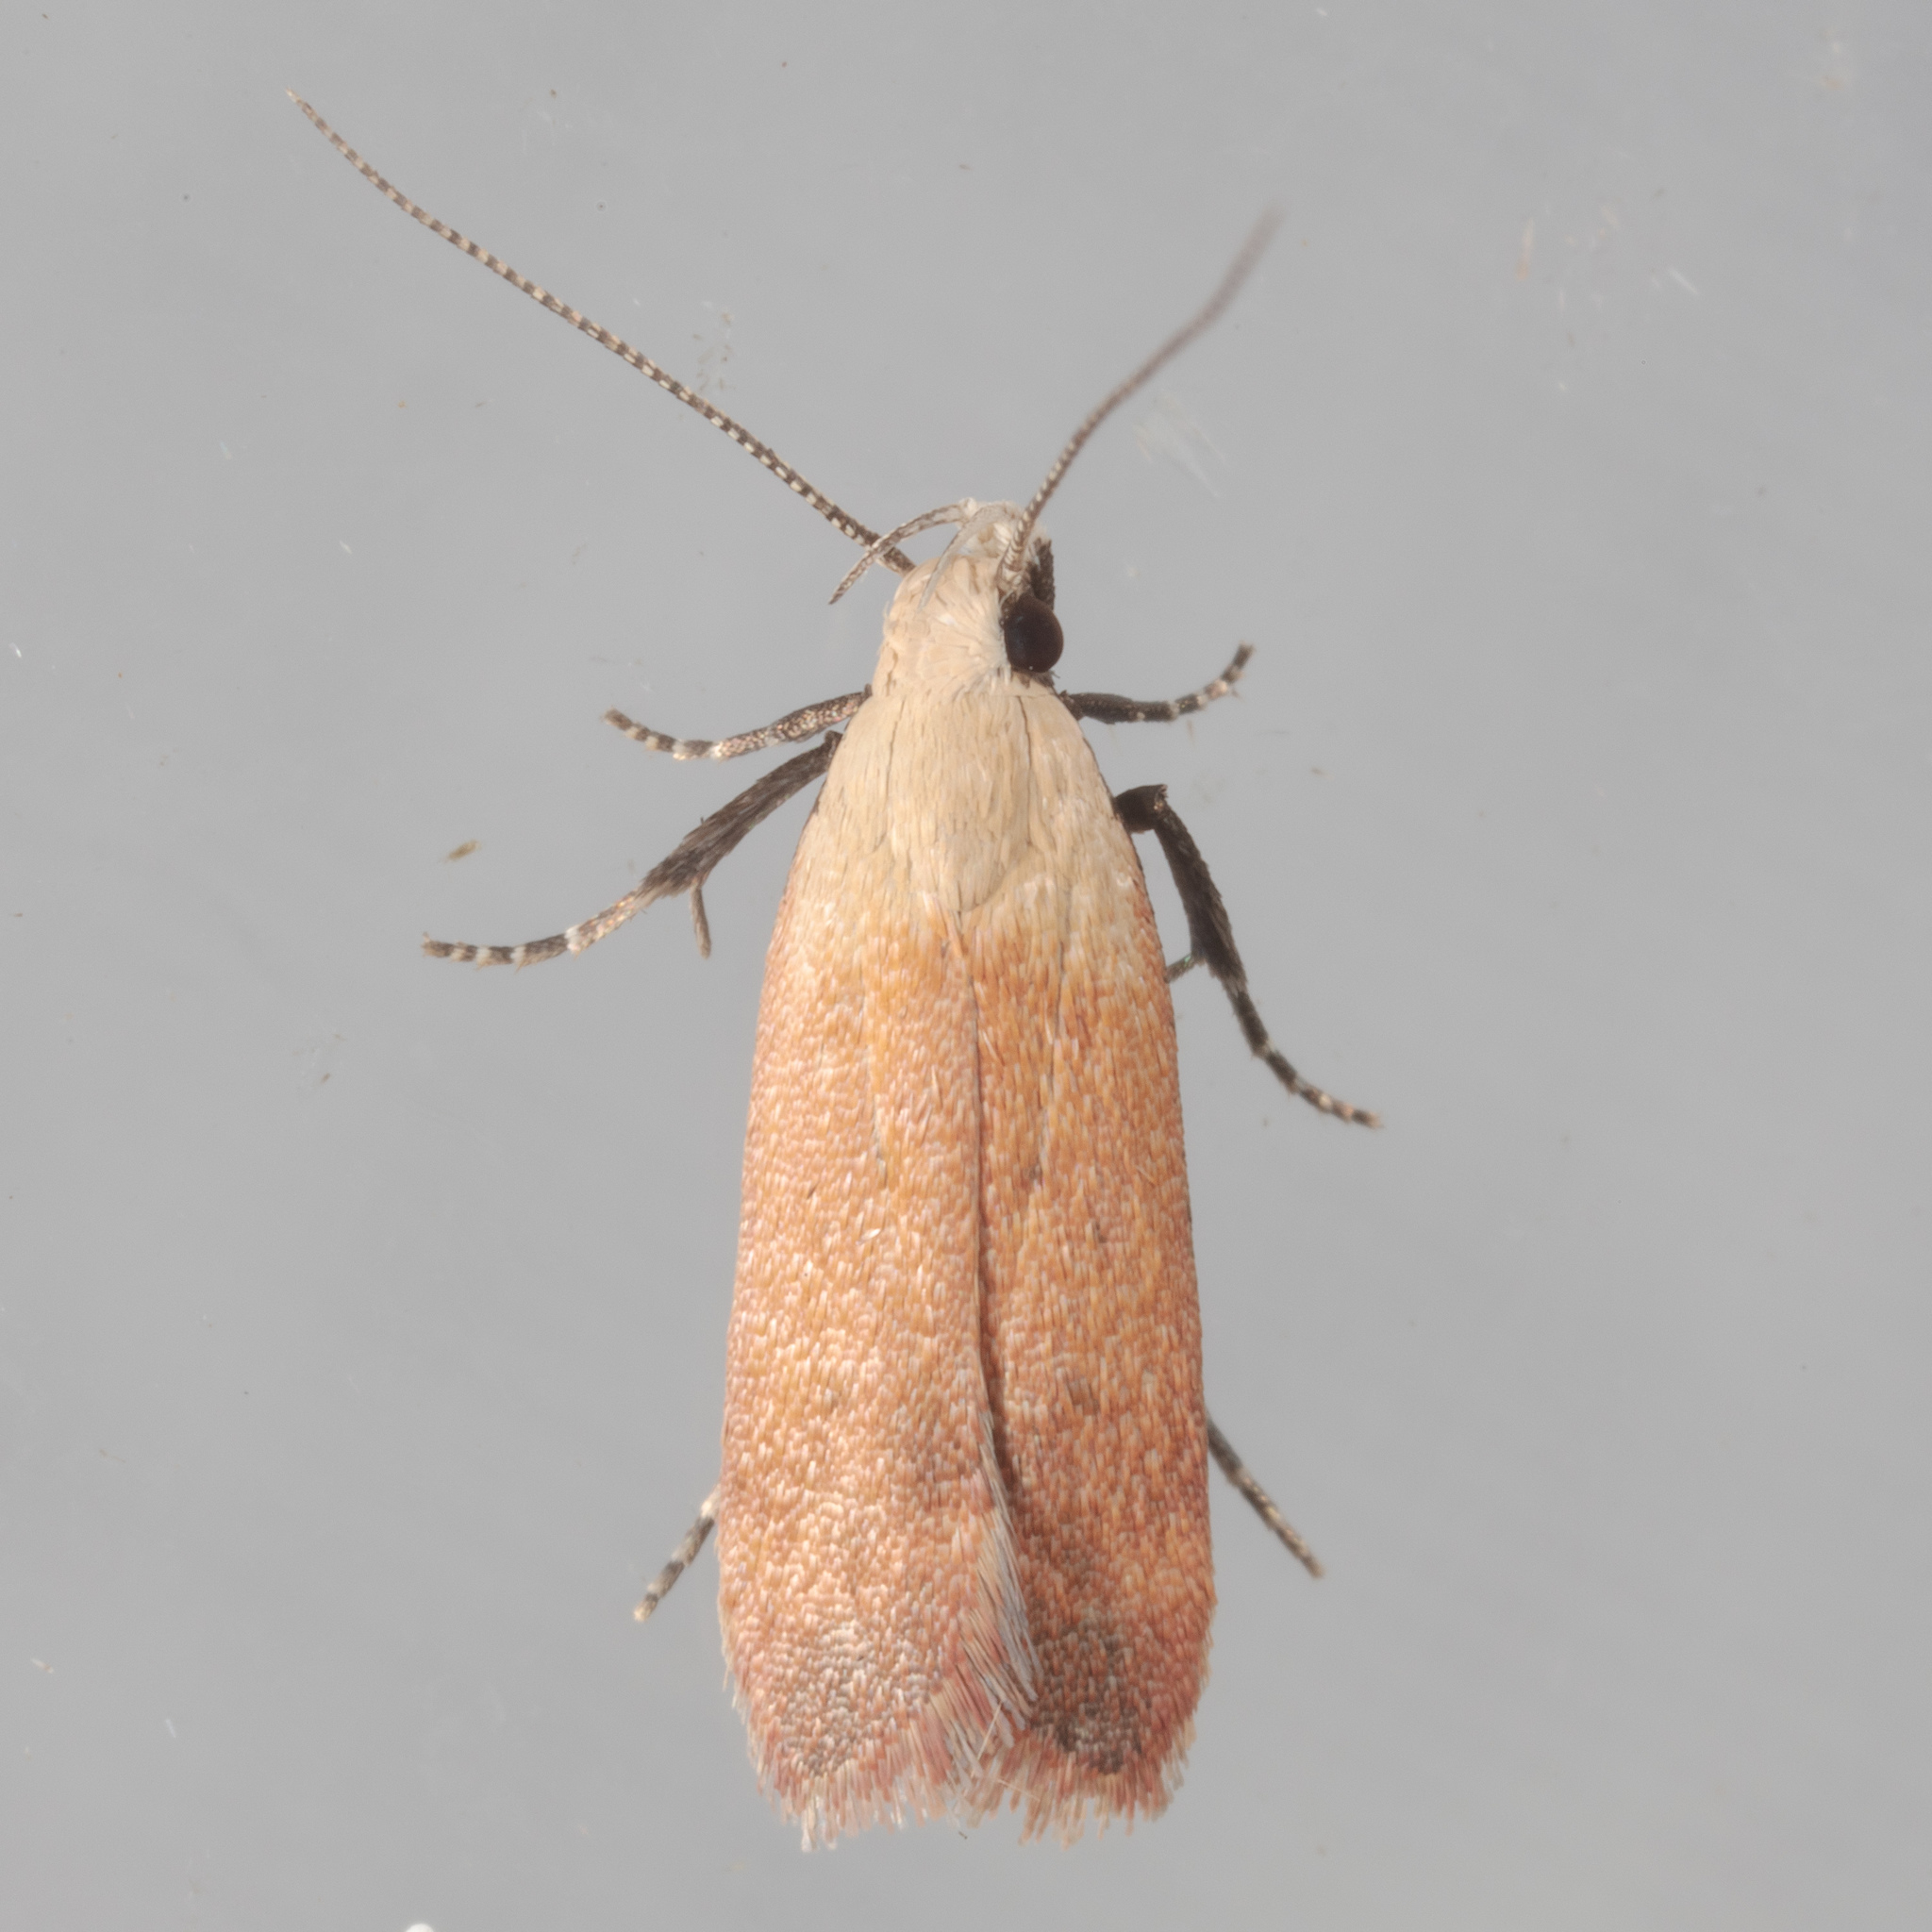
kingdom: Animalia
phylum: Arthropoda
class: Insecta
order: Lepidoptera
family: Gelechiidae
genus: Anacampsis
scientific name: Anacampsis fullonella
